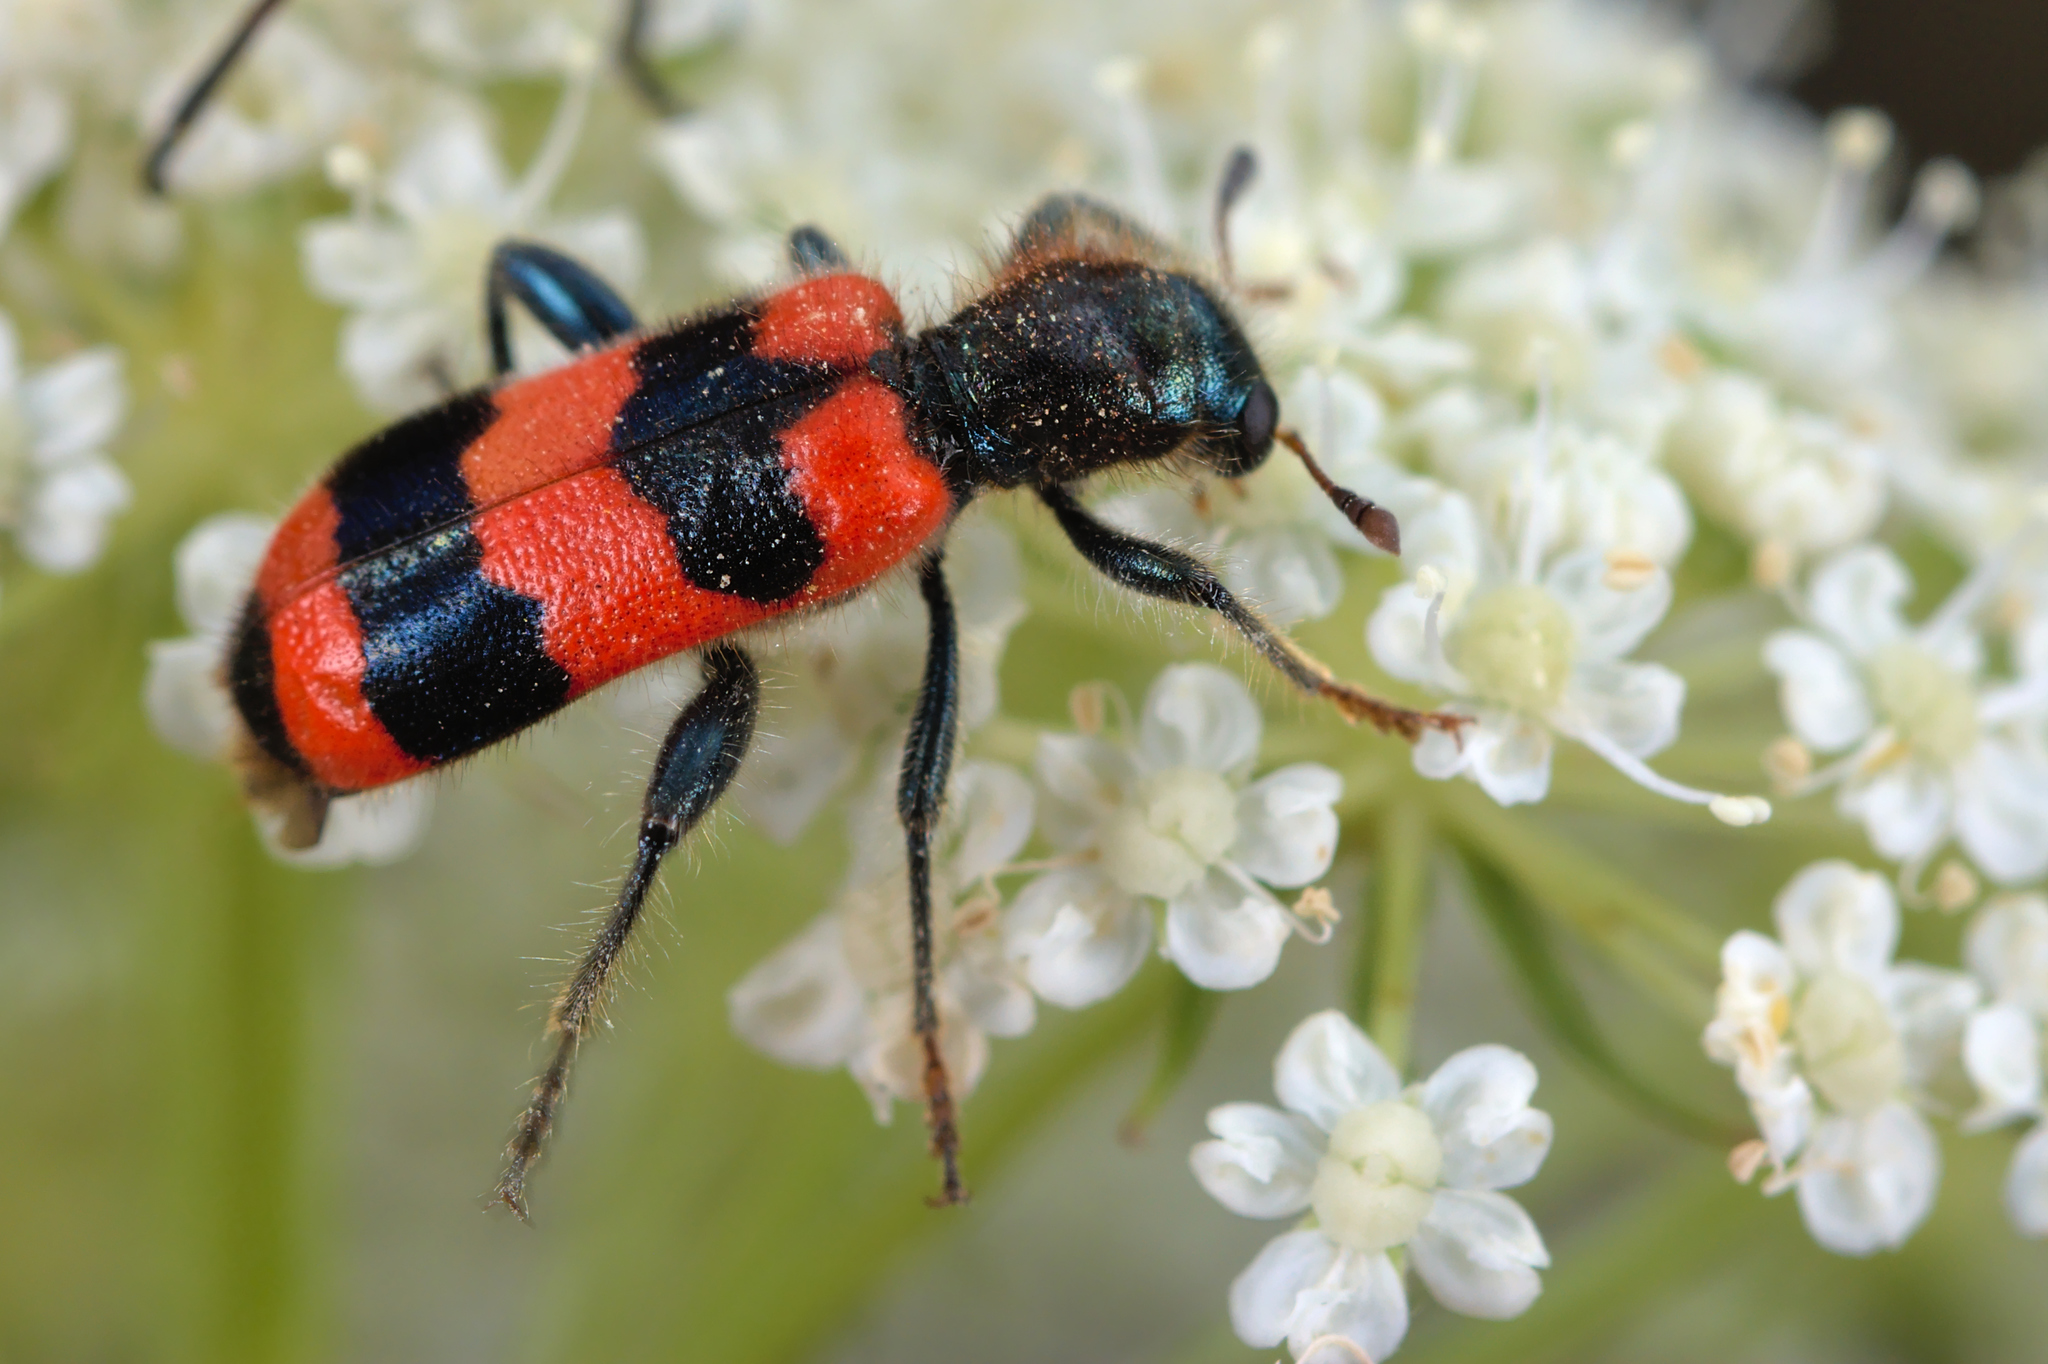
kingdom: Animalia
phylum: Arthropoda
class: Insecta
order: Coleoptera
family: Cleridae
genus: Trichodes
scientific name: Trichodes apiarius
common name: Bee-eating beetle
